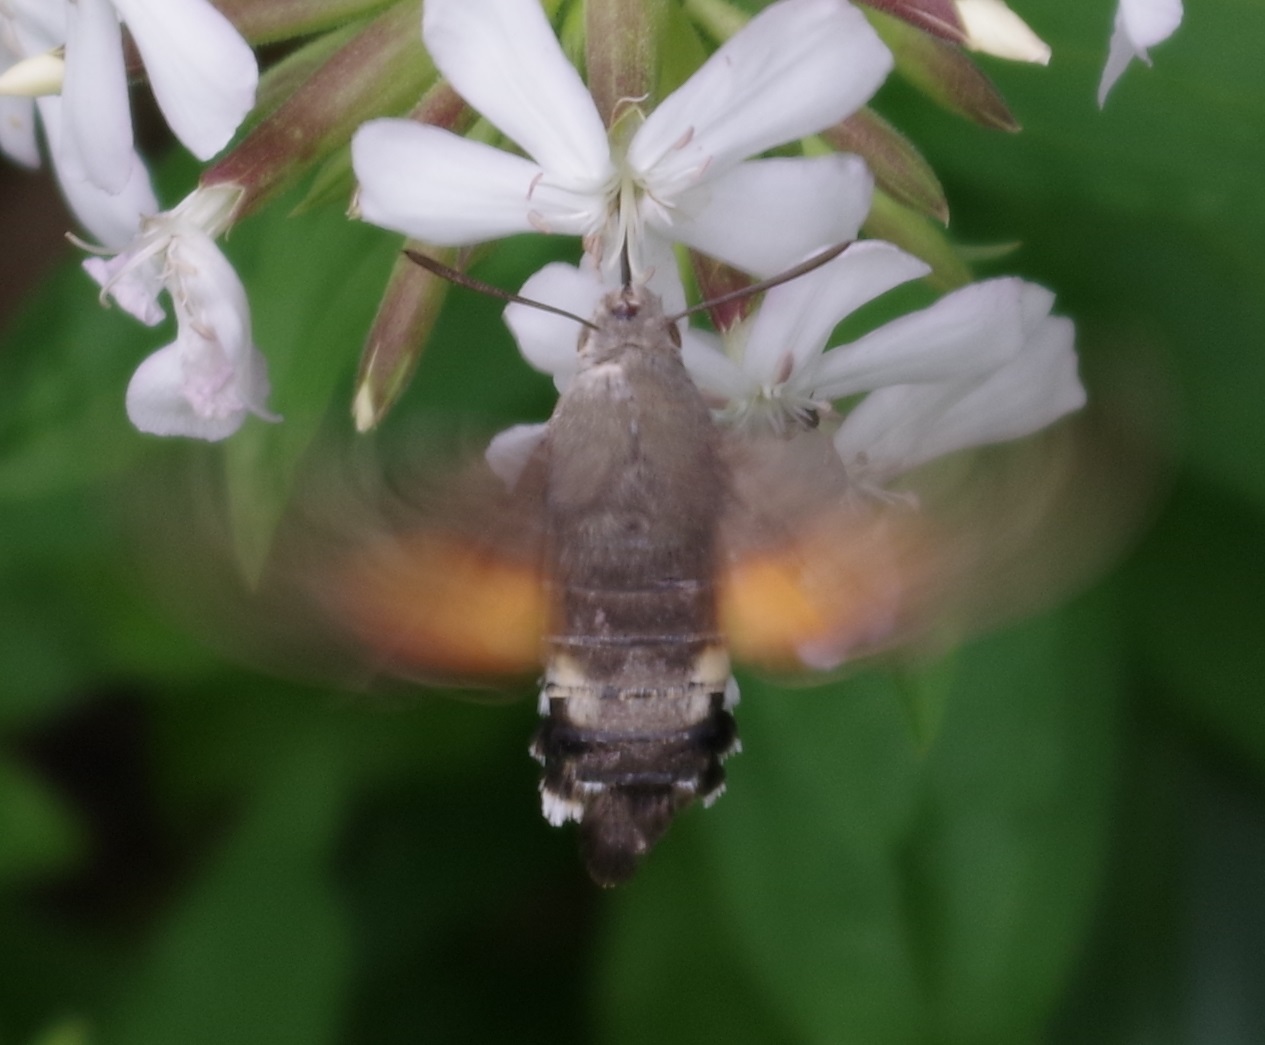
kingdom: Animalia
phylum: Arthropoda
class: Insecta
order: Lepidoptera
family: Sphingidae
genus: Macroglossum
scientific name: Macroglossum stellatarum
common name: Humming-bird hawk-moth
